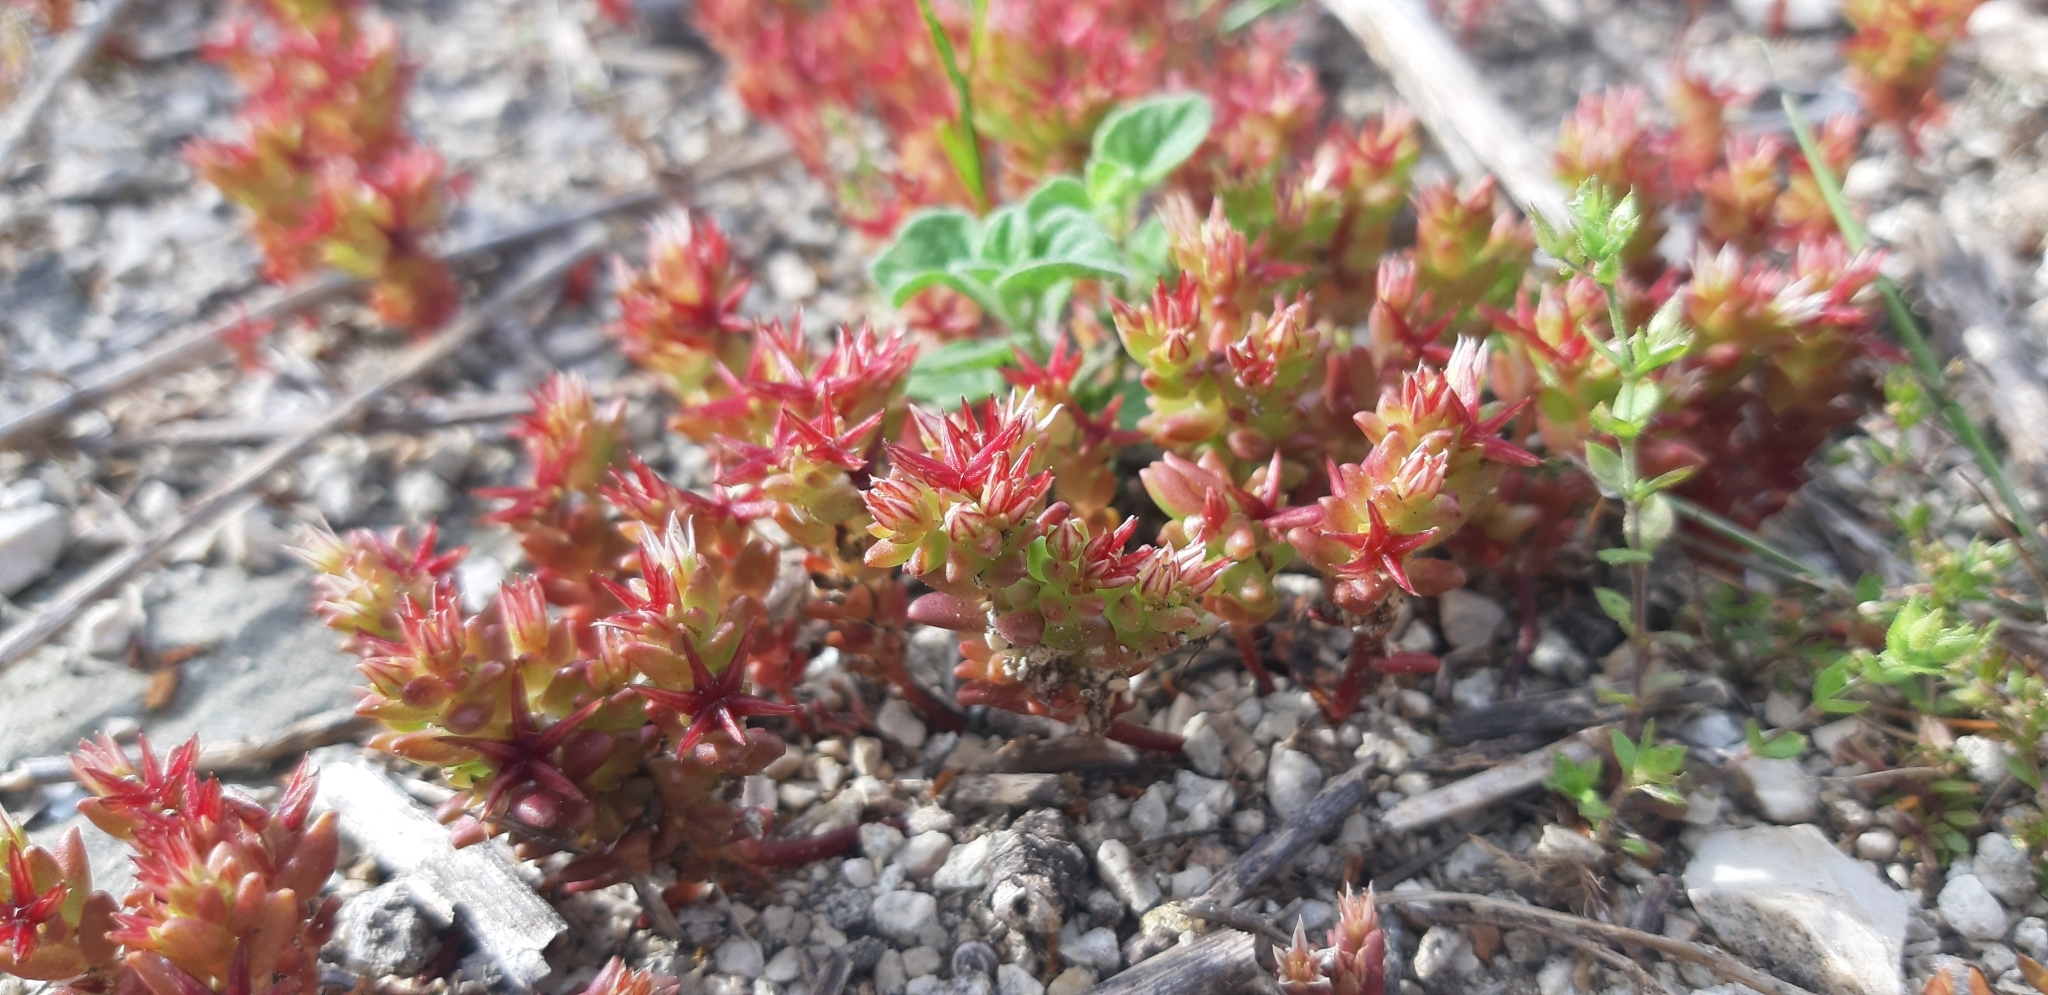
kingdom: Plantae
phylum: Tracheophyta
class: Magnoliopsida
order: Saxifragales
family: Crassulaceae
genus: Sedum
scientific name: Sedum cespitosum
